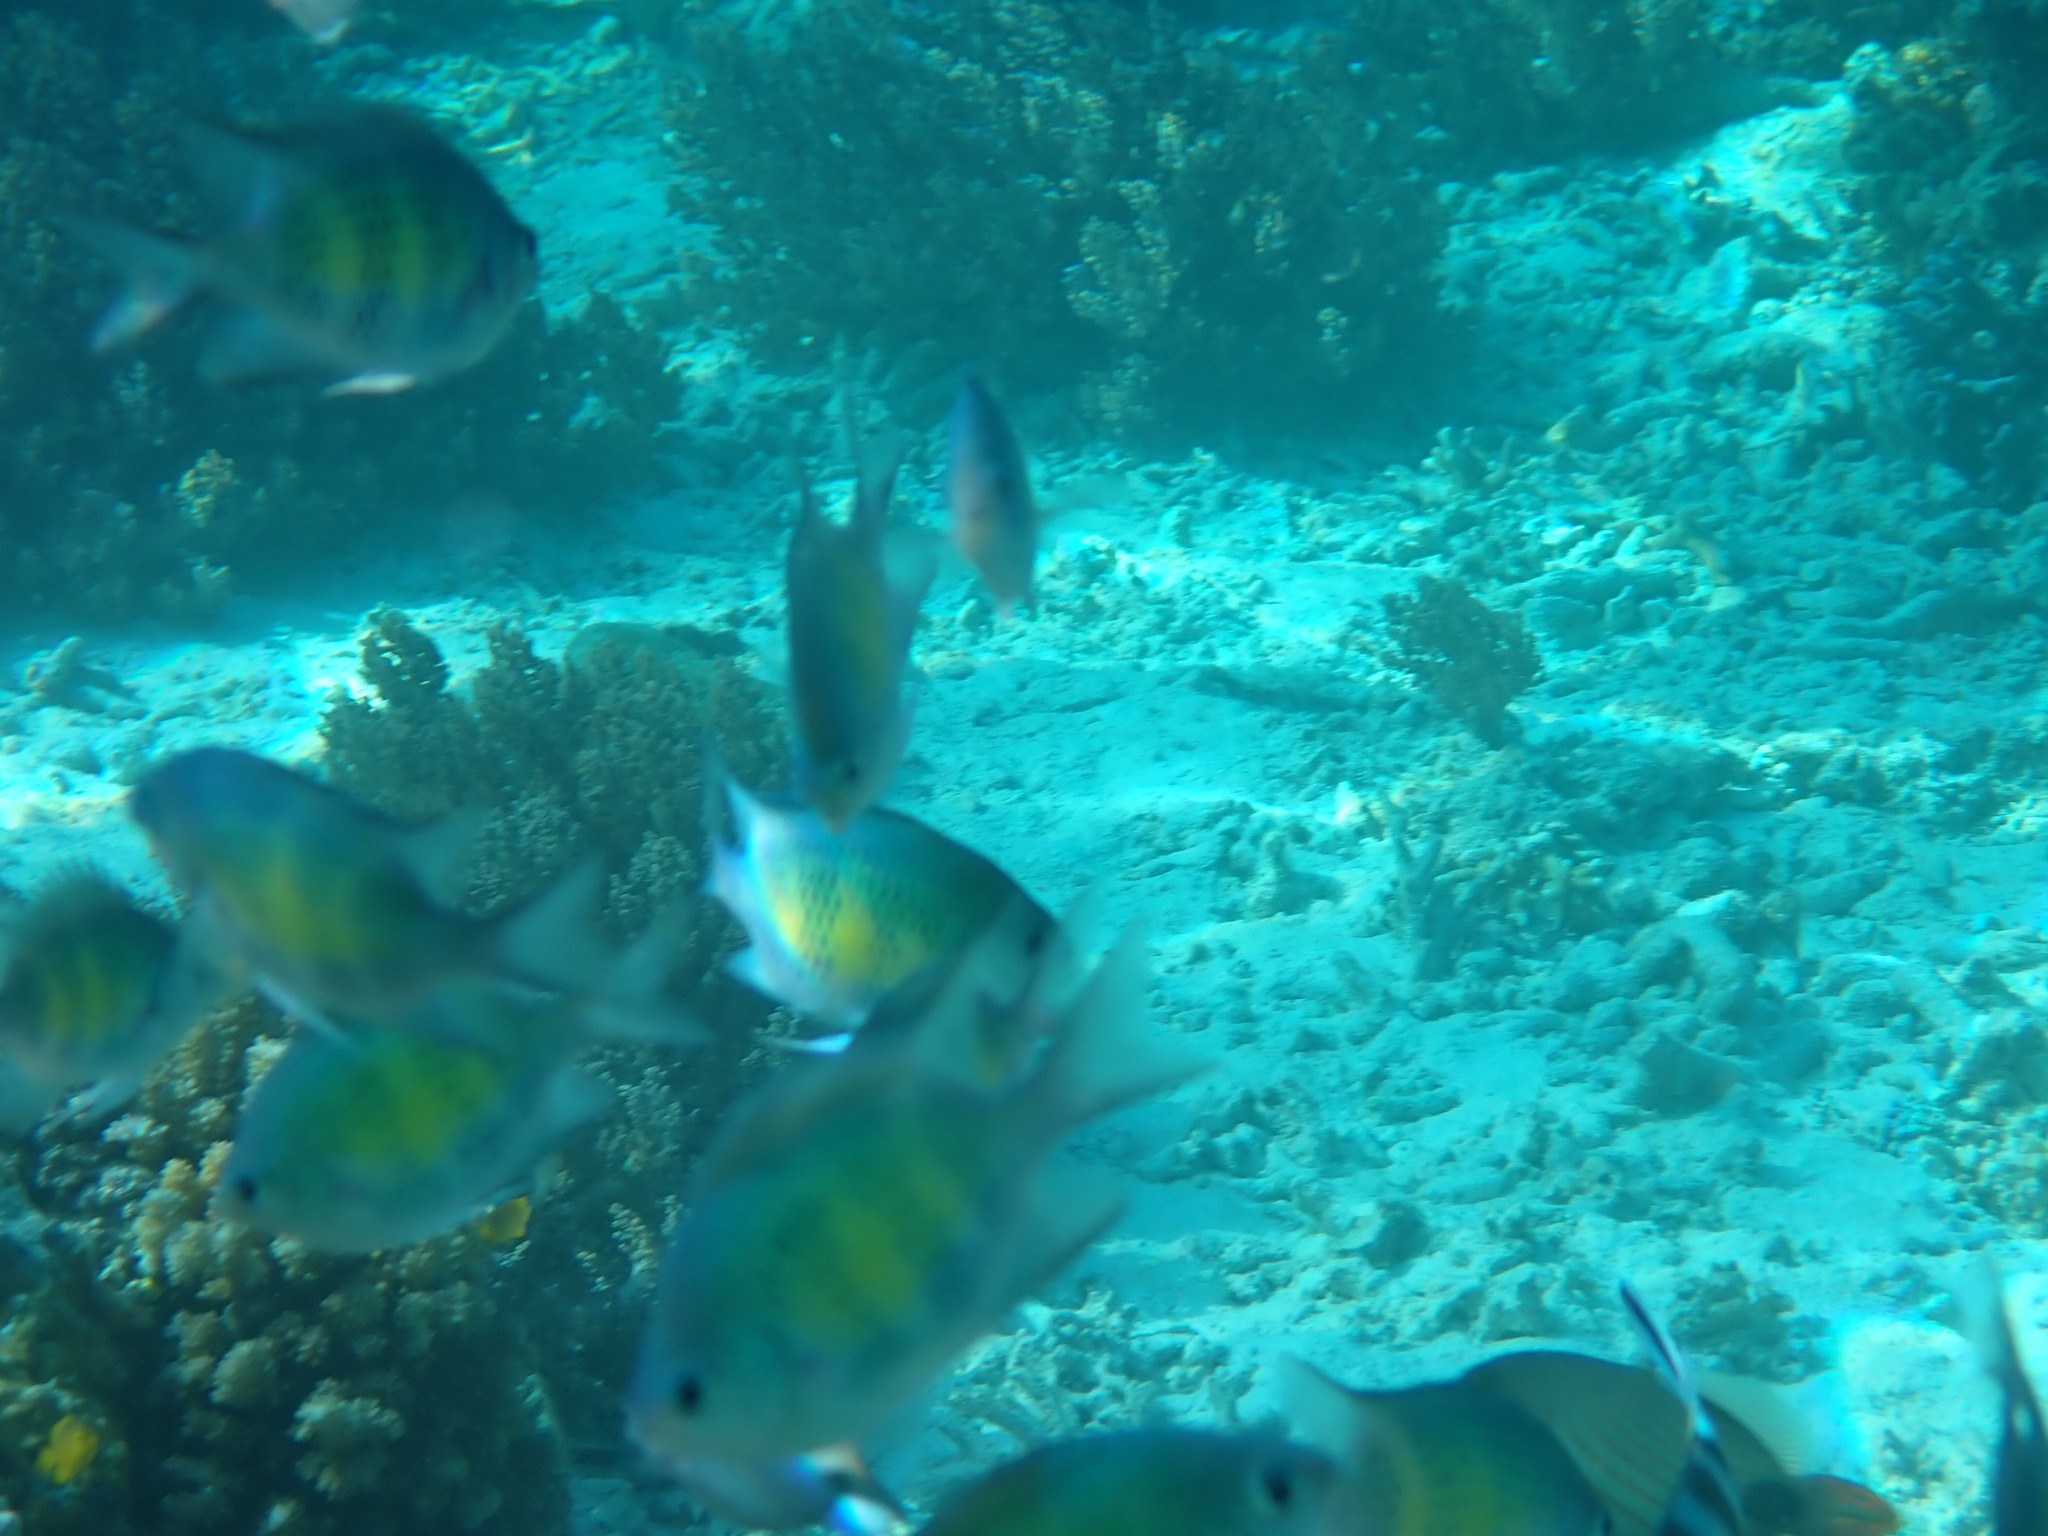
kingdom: Animalia
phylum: Chordata
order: Perciformes
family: Pomacentridae
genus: Amblyglyphidodon
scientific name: Amblyglyphidodon curacao
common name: Staghorn damsel
